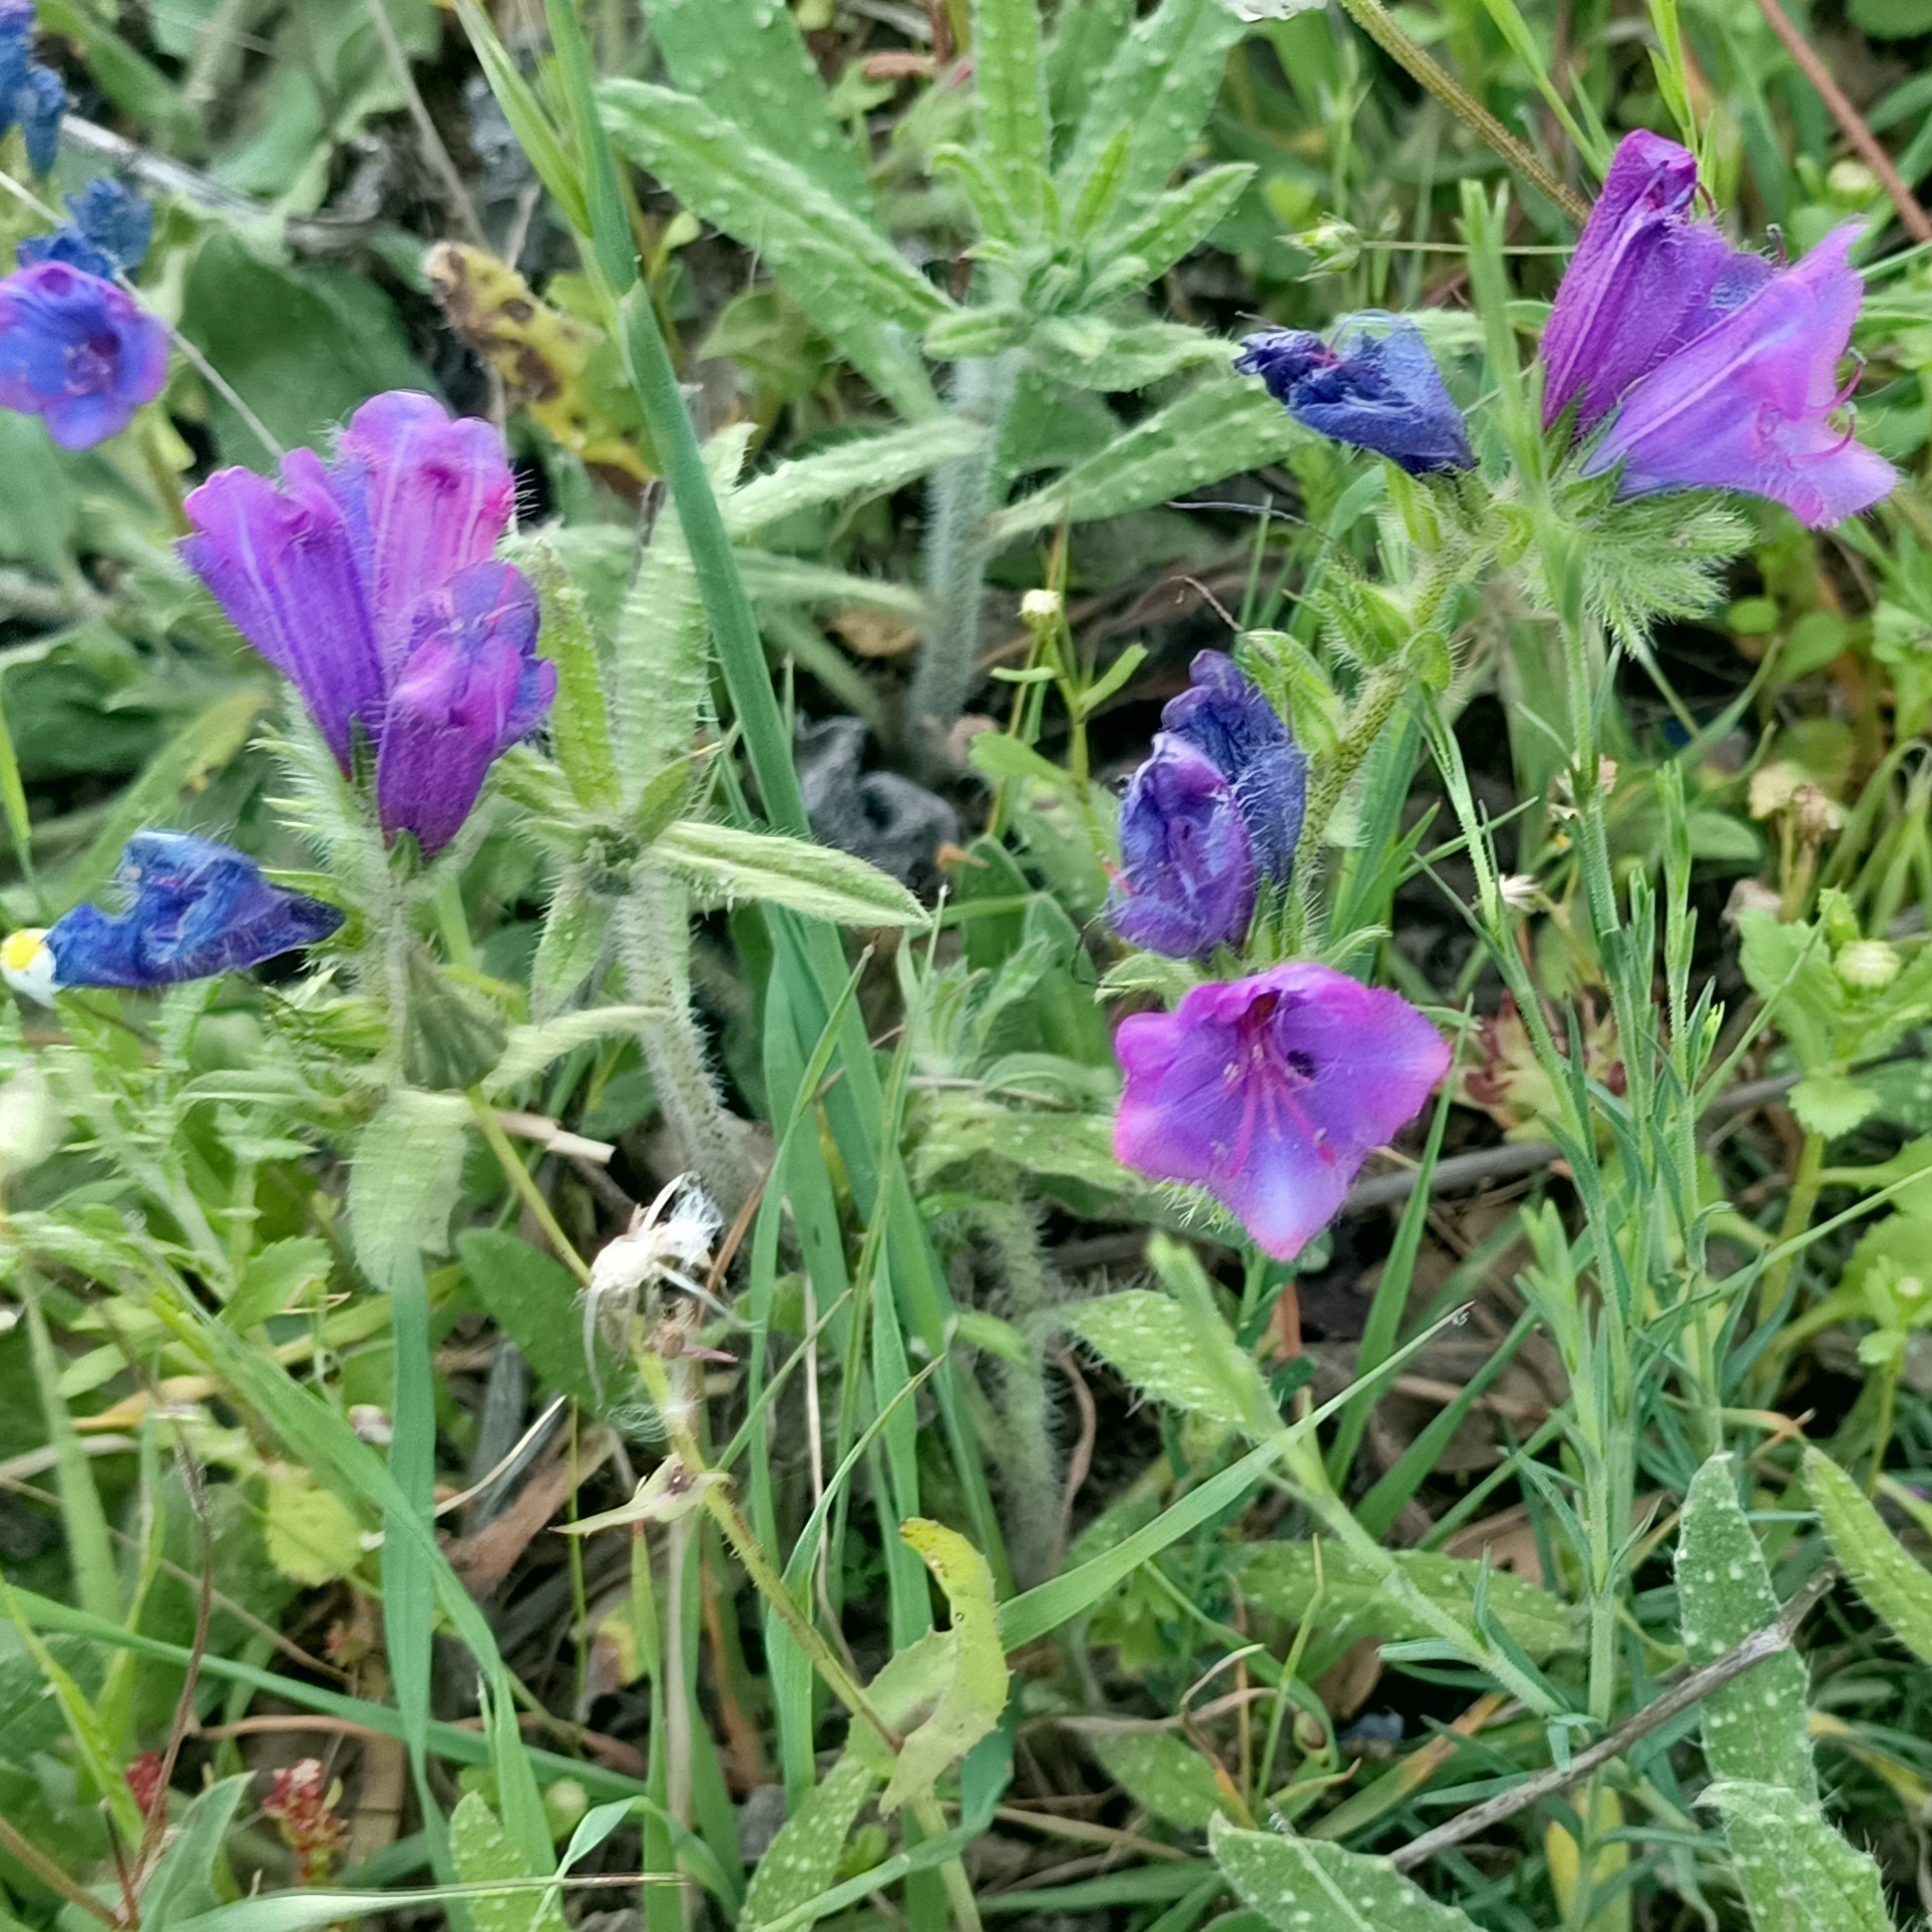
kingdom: Plantae
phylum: Tracheophyta
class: Magnoliopsida
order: Boraginales
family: Boraginaceae
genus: Echium
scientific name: Echium plantagineum
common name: Purple viper's-bugloss
